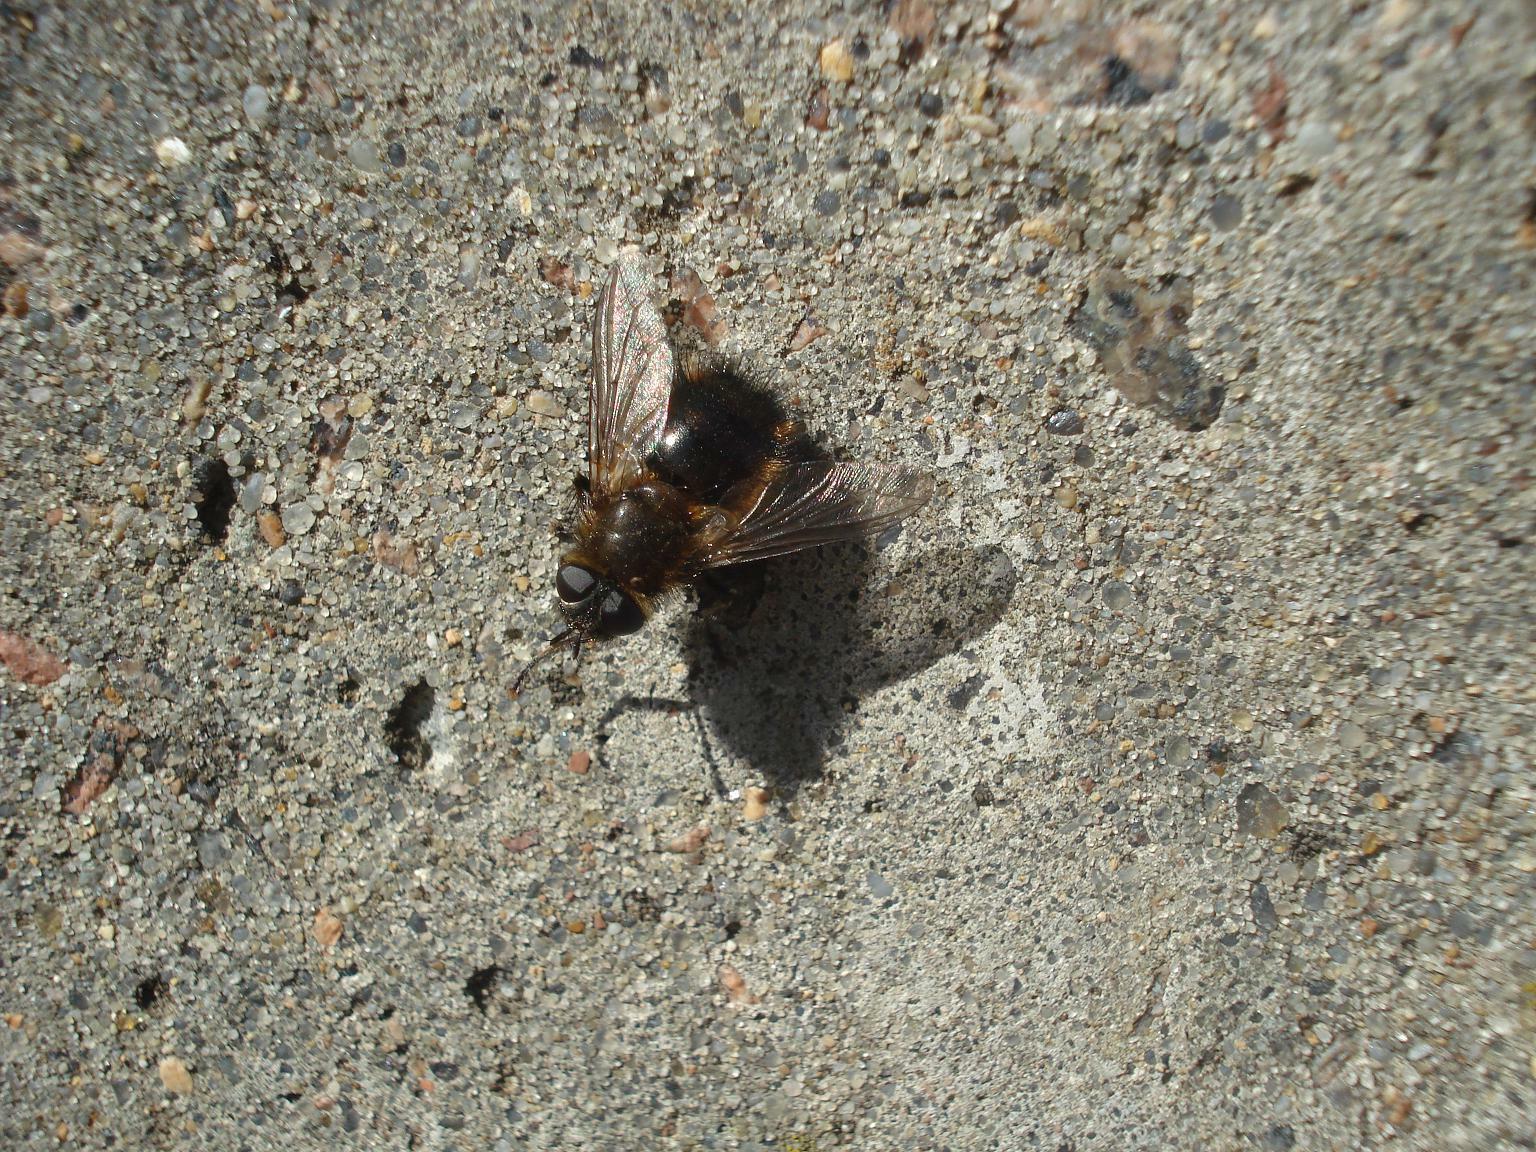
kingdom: Animalia
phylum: Arthropoda
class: Insecta
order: Diptera
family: Tachinidae
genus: Tachina
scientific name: Tachina ursina
